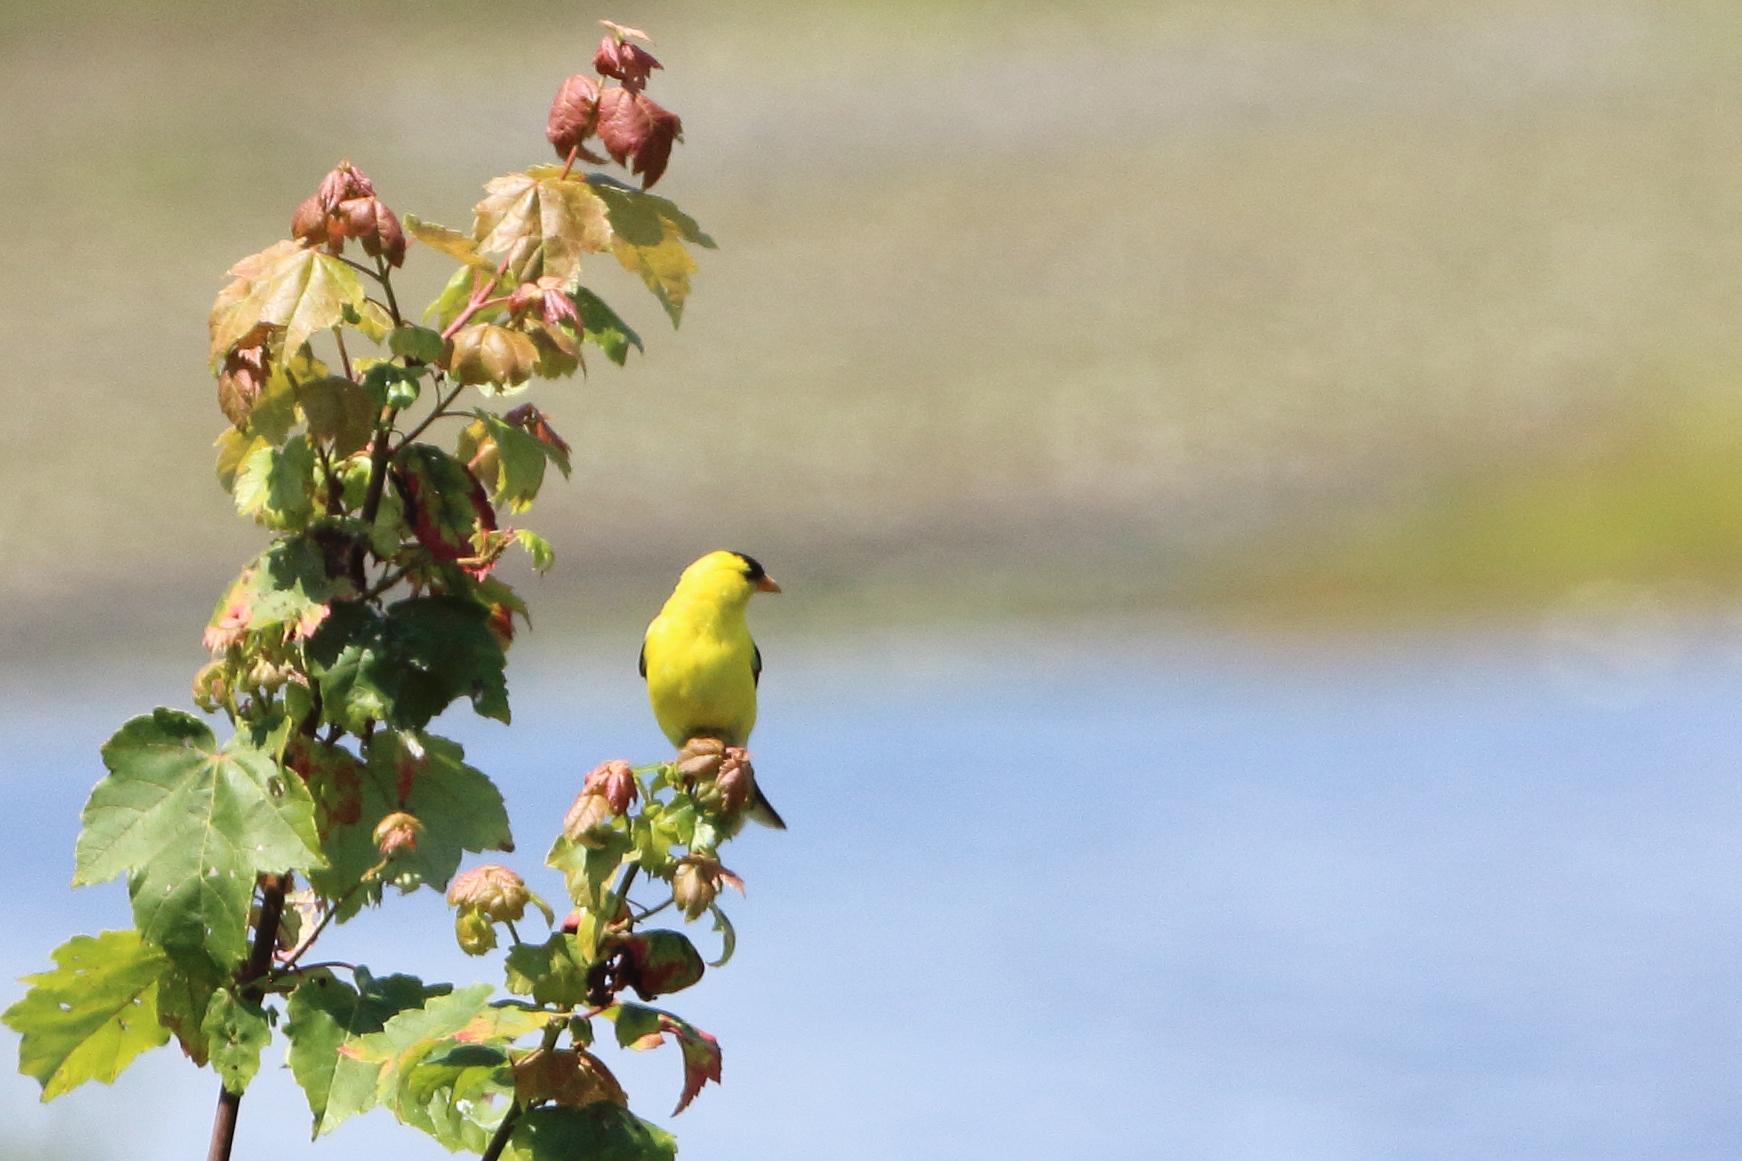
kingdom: Animalia
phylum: Chordata
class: Aves
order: Passeriformes
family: Fringillidae
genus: Spinus
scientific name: Spinus tristis
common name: American goldfinch
